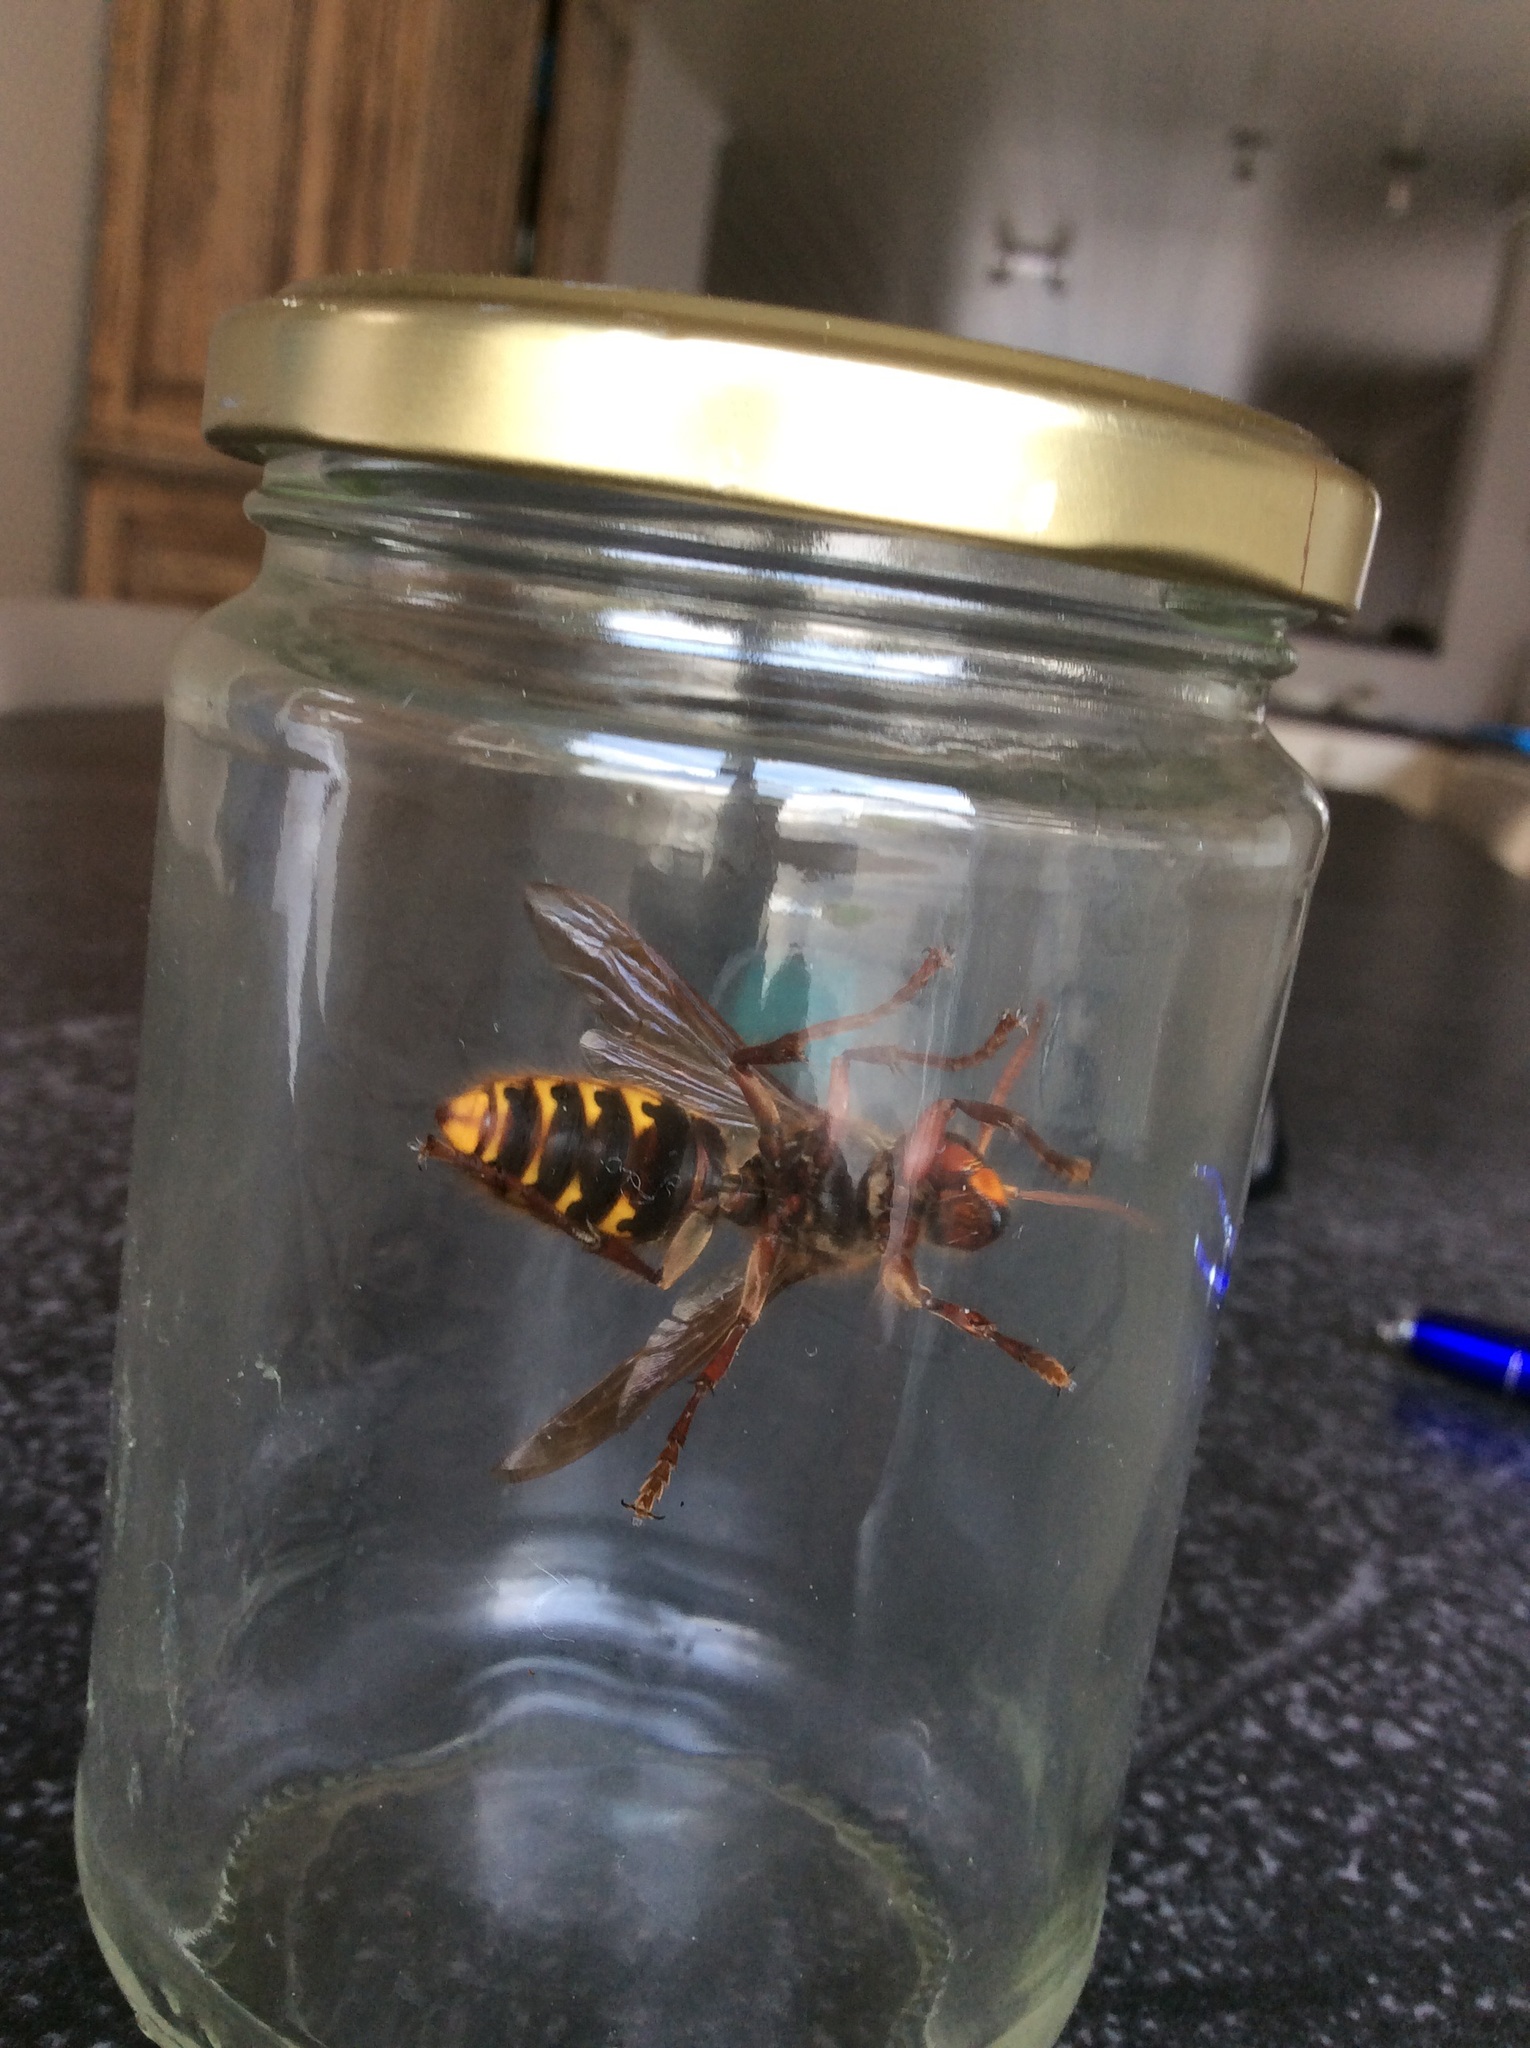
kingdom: Animalia
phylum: Arthropoda
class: Insecta
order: Hymenoptera
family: Vespidae
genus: Vespa
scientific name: Vespa crabro
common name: Hornet
